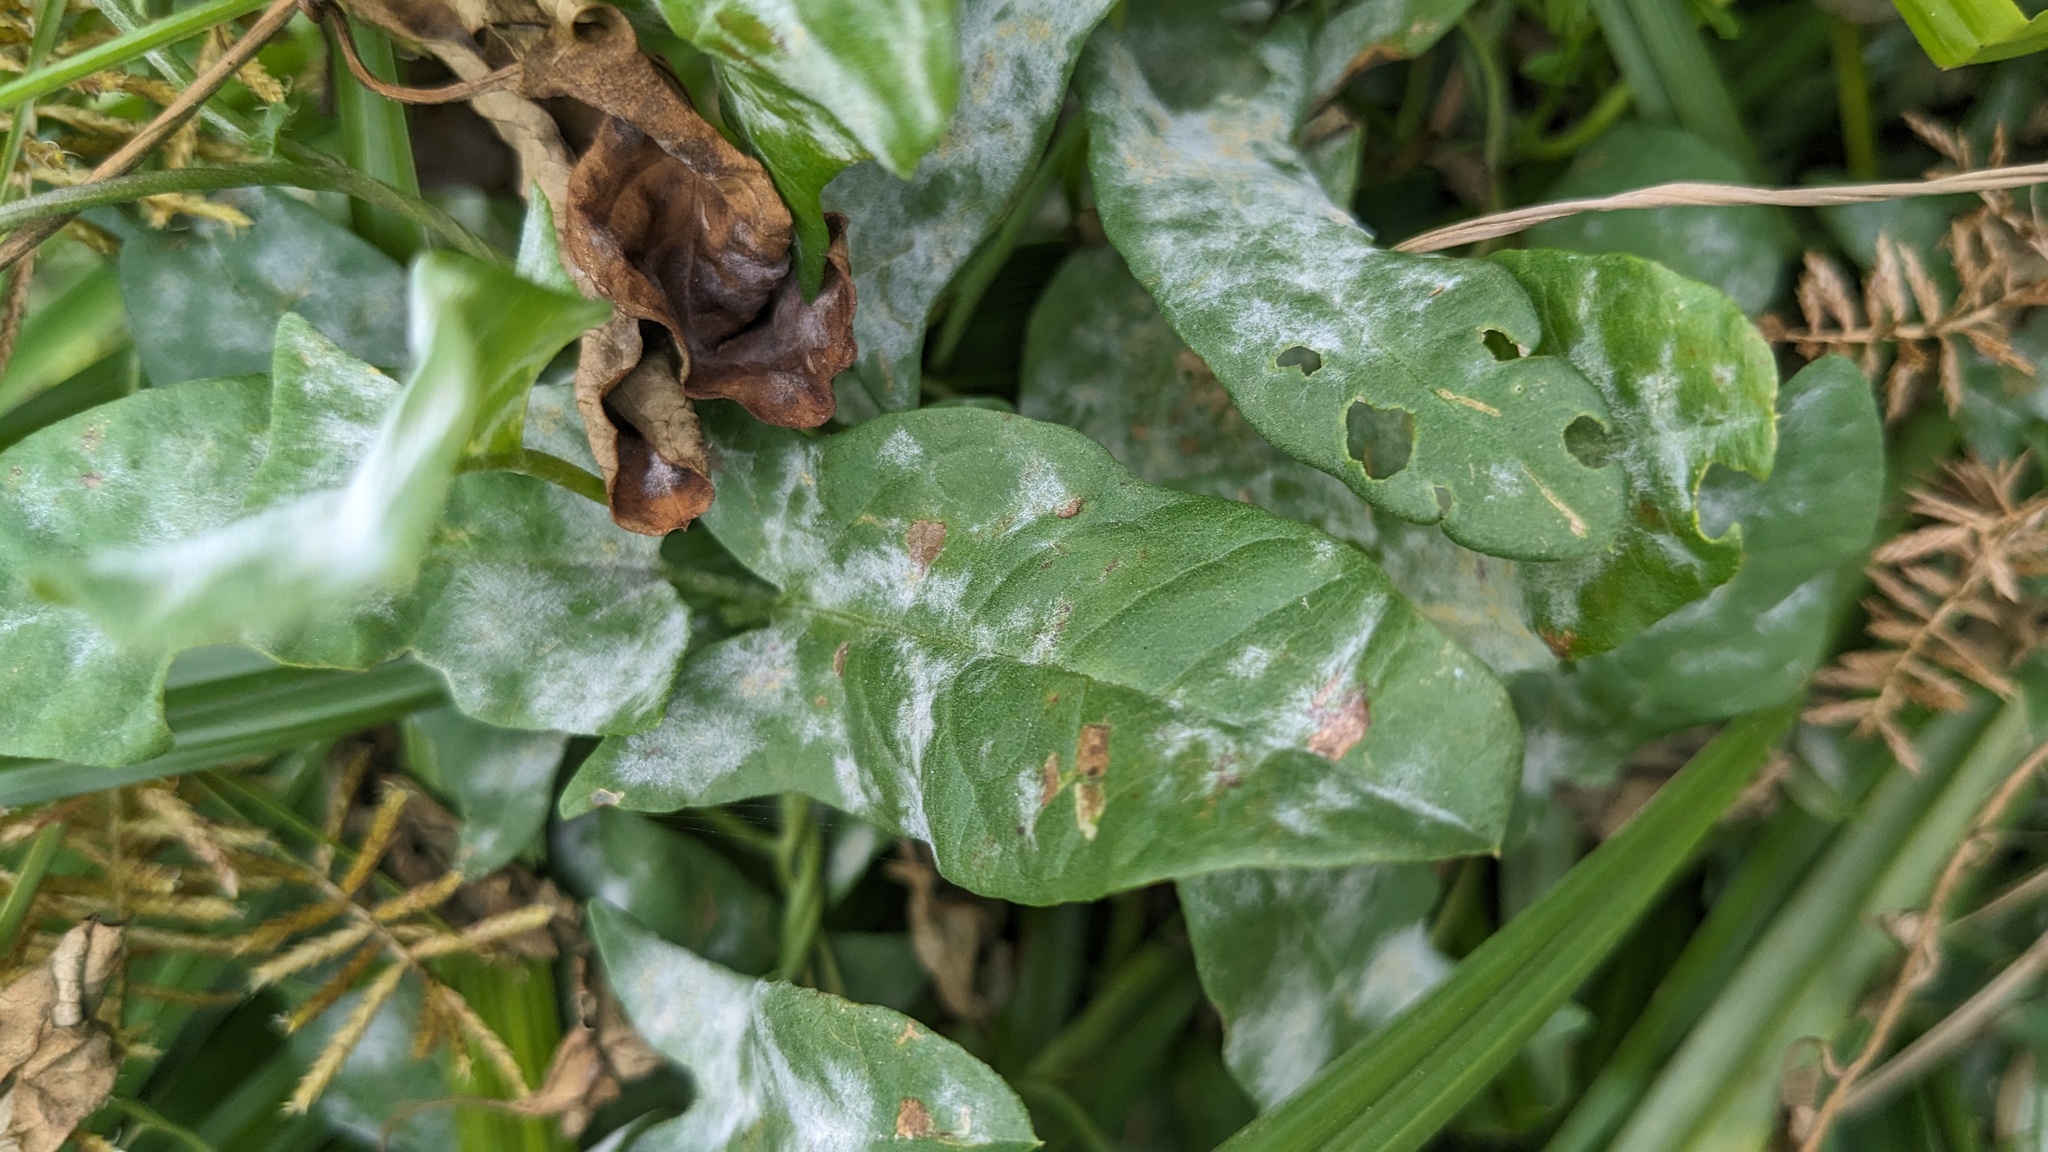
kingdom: Fungi
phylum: Ascomycota
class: Leotiomycetes
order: Helotiales
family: Erysiphaceae
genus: Erysiphe
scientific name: Erysiphe convolvuli
